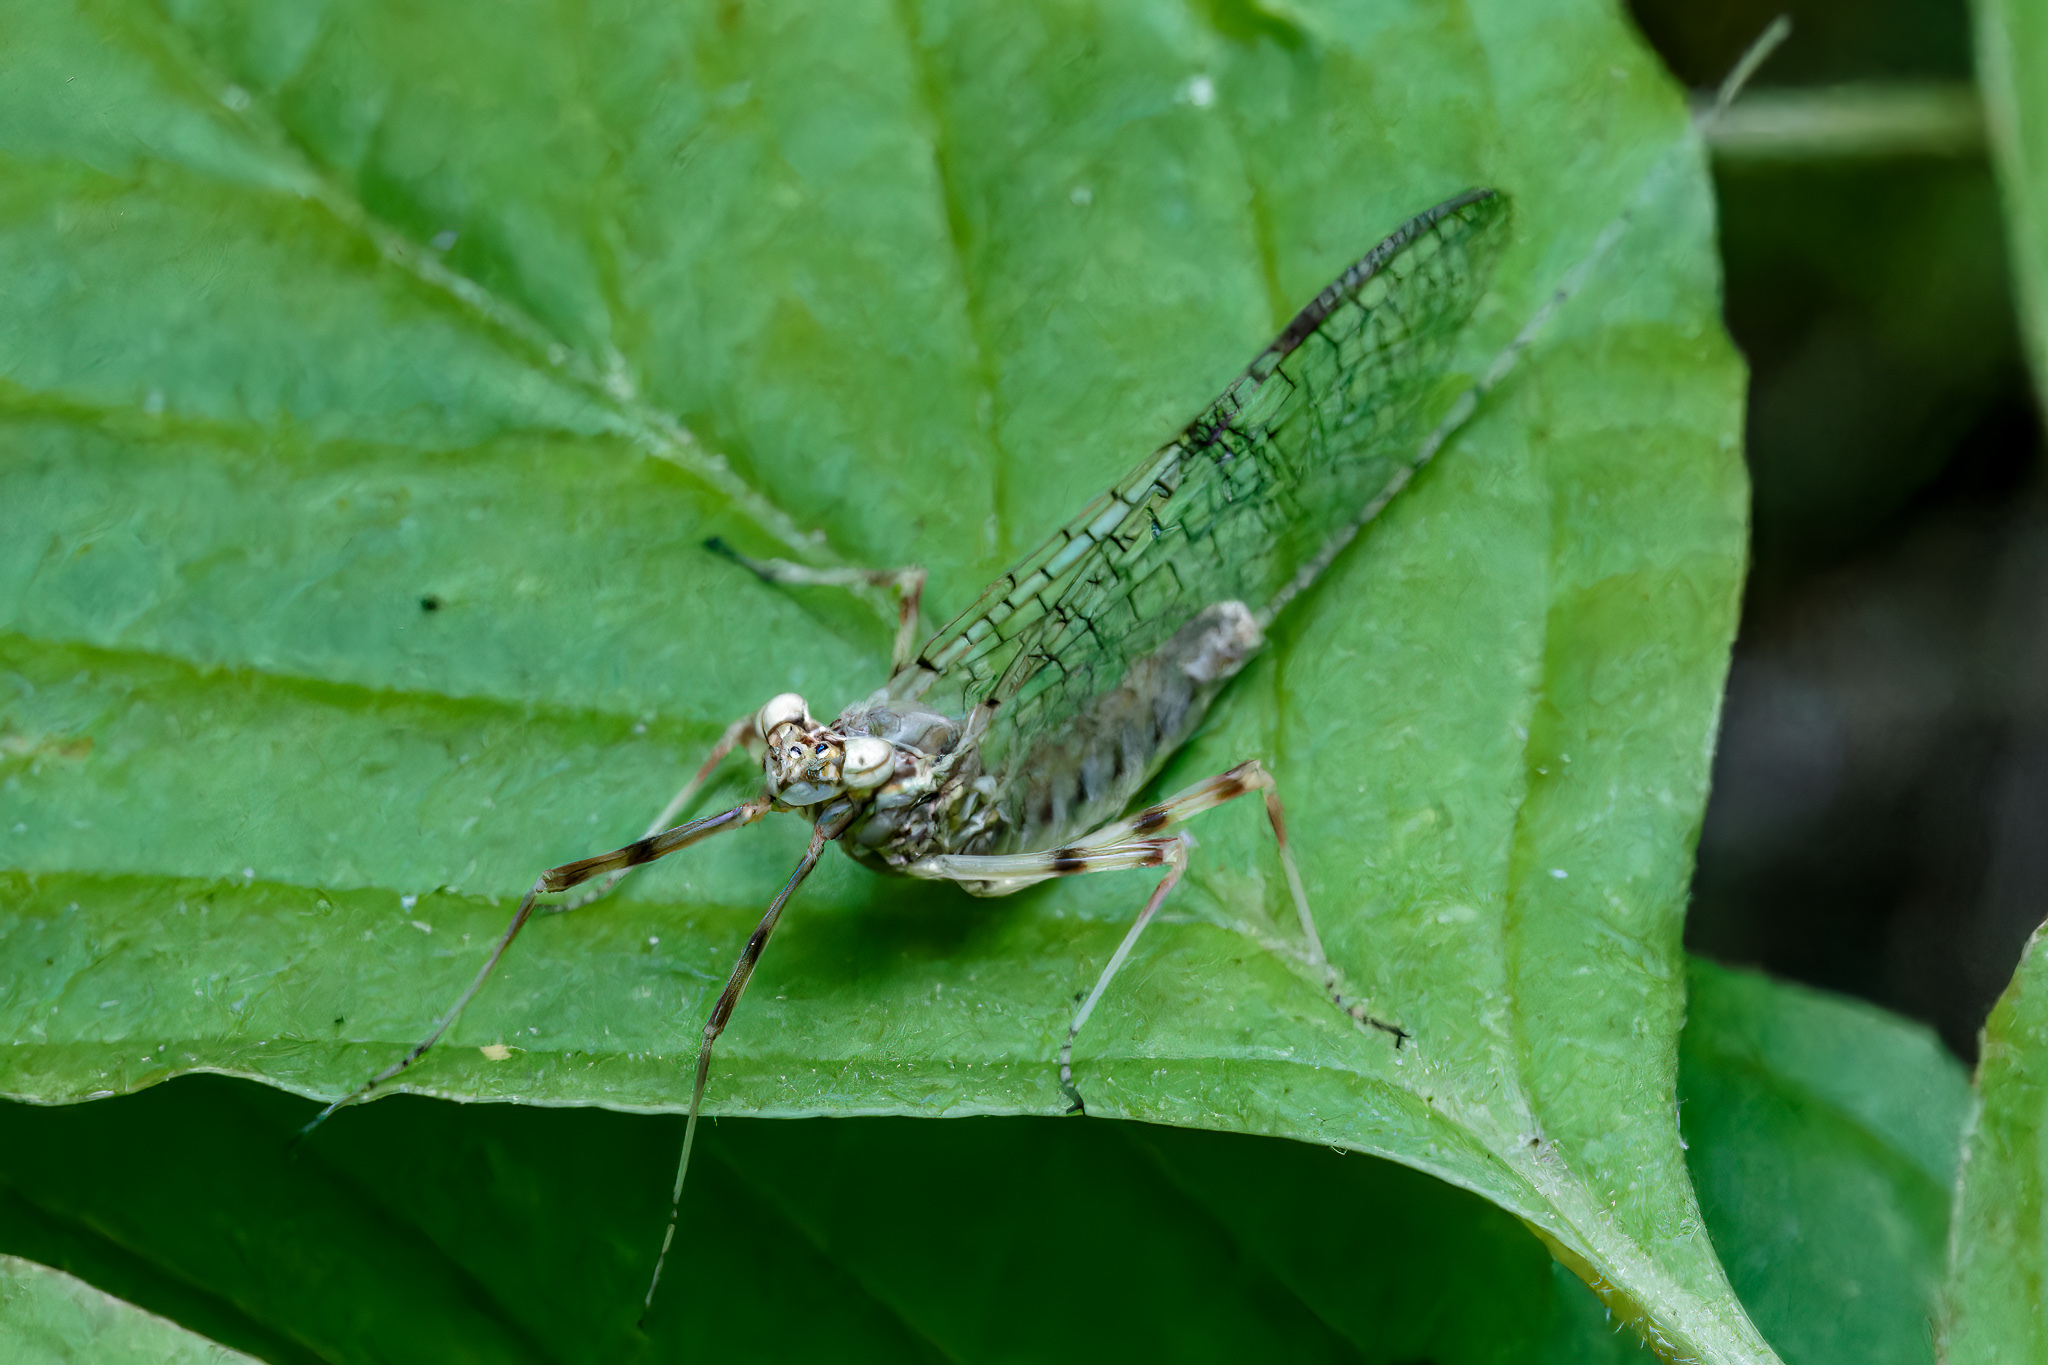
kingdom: Animalia
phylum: Arthropoda
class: Insecta
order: Ephemeroptera
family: Heptageniidae
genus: Stenonema
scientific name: Stenonema femoratum
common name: Dark cahill
